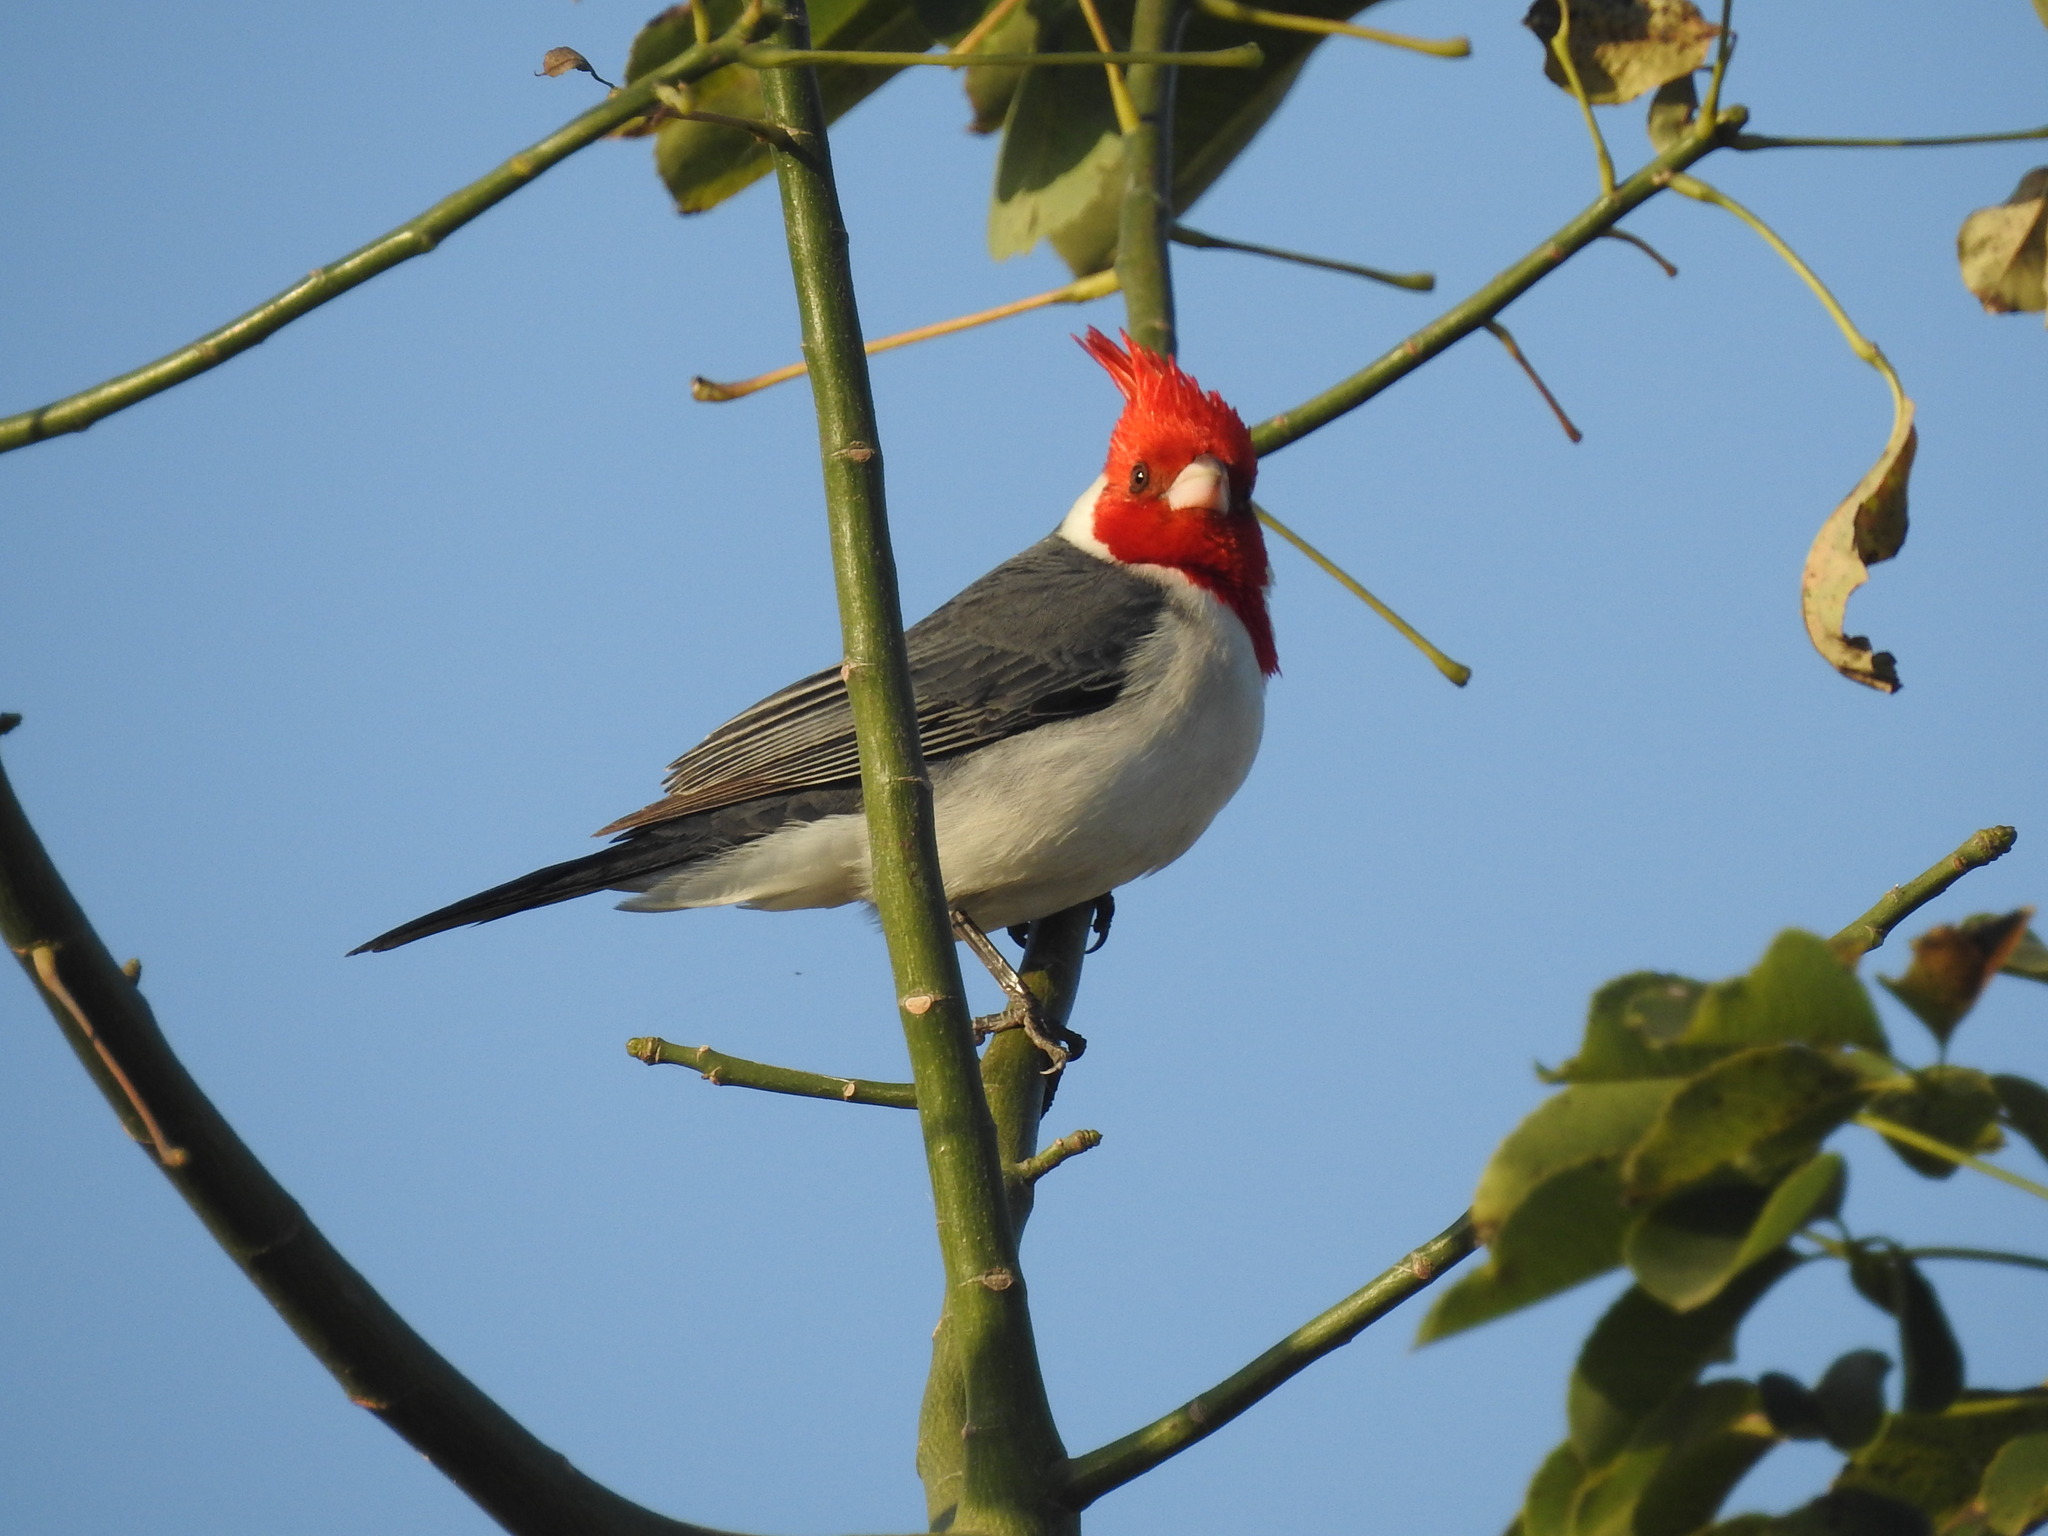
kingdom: Animalia
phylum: Chordata
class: Aves
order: Passeriformes
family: Thraupidae
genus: Paroaria
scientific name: Paroaria coronata
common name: Red-crested cardinal
